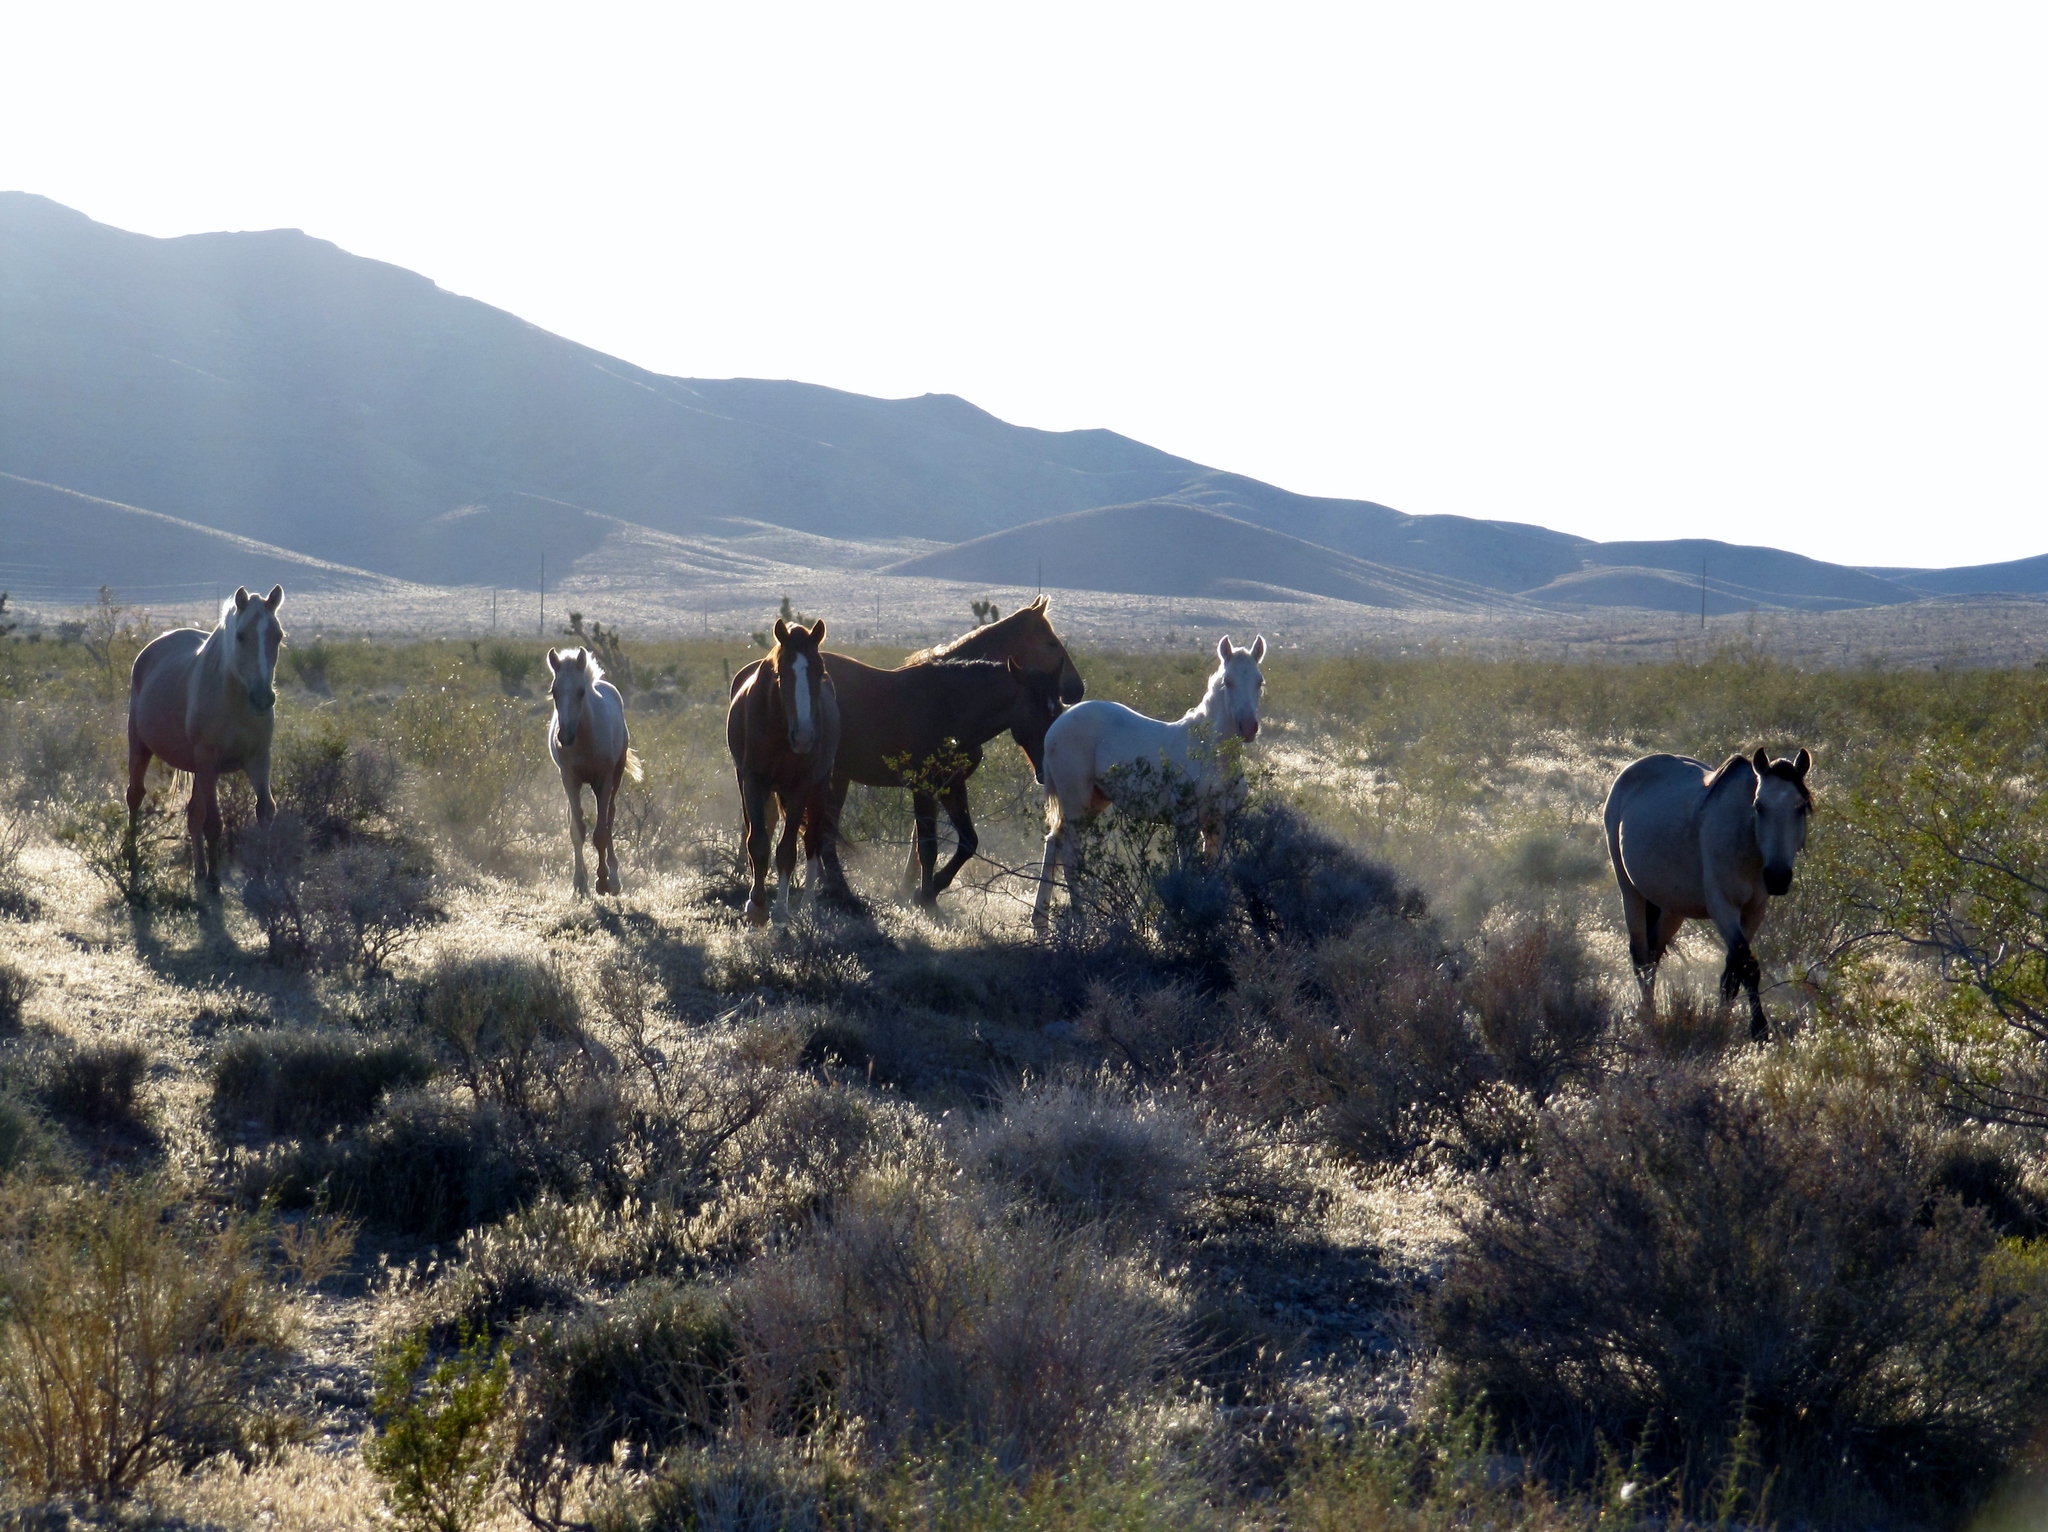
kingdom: Animalia
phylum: Chordata
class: Mammalia
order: Perissodactyla
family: Equidae
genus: Equus
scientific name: Equus caballus
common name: Horse
